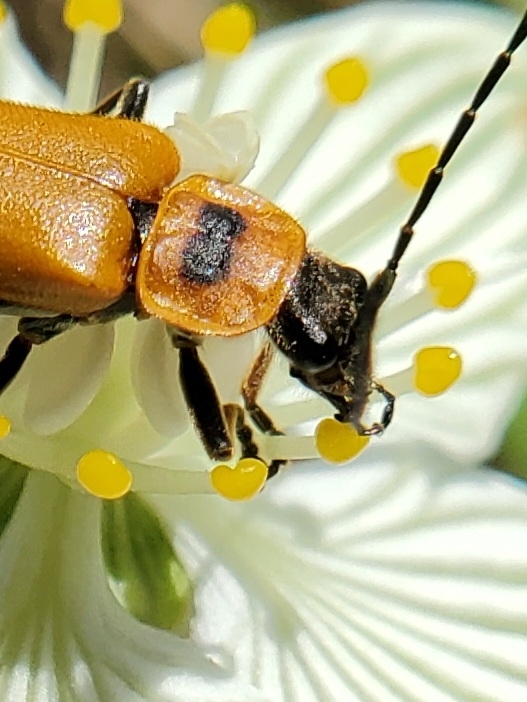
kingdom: Animalia
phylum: Arthropoda
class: Insecta
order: Coleoptera
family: Cantharidae
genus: Chauliognathus
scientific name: Chauliognathus pensylvanicus
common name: Goldenrod soldier beetle
